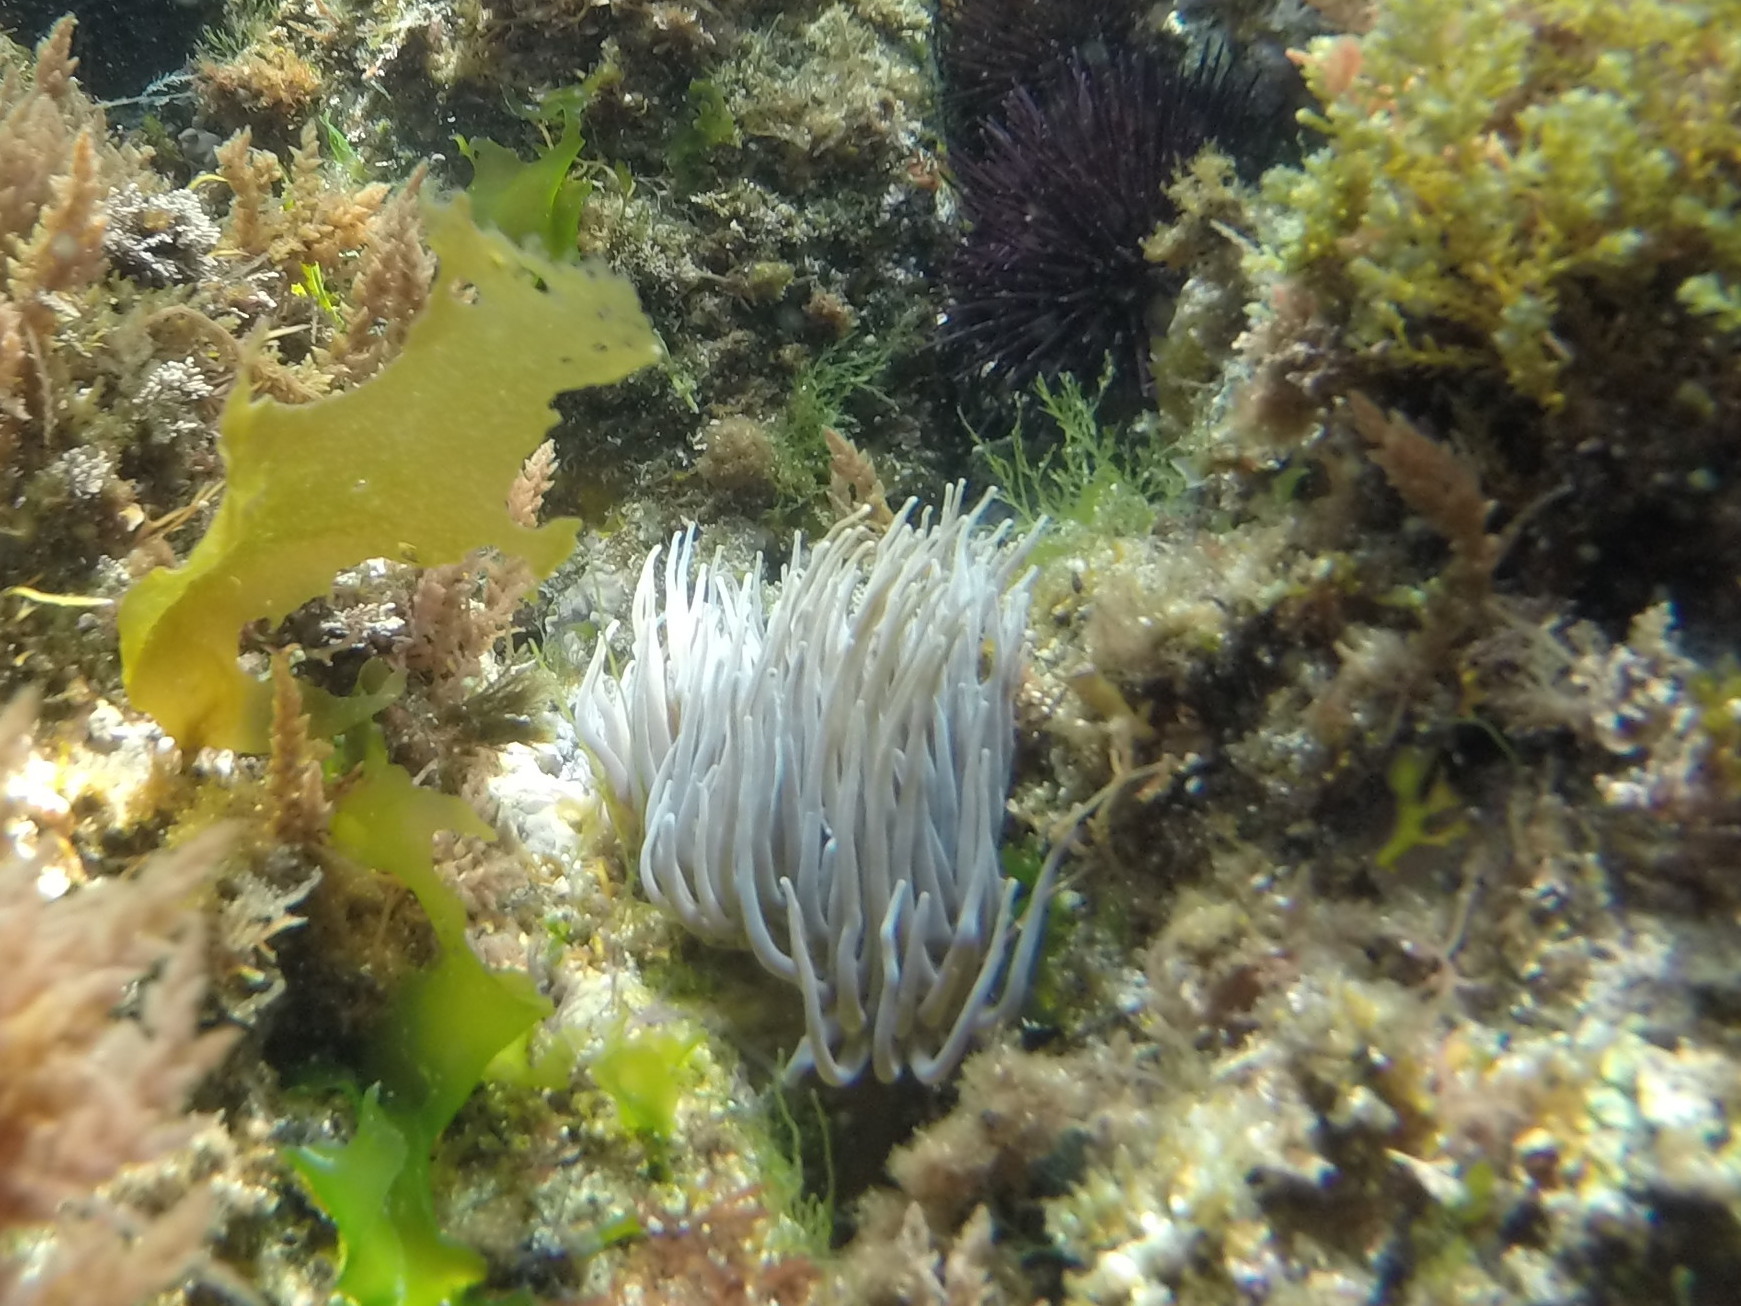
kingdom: Animalia
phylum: Cnidaria
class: Anthozoa
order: Actiniaria
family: Actiniidae
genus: Anemonia
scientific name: Anemonia viridis
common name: Snakelocks anemone
